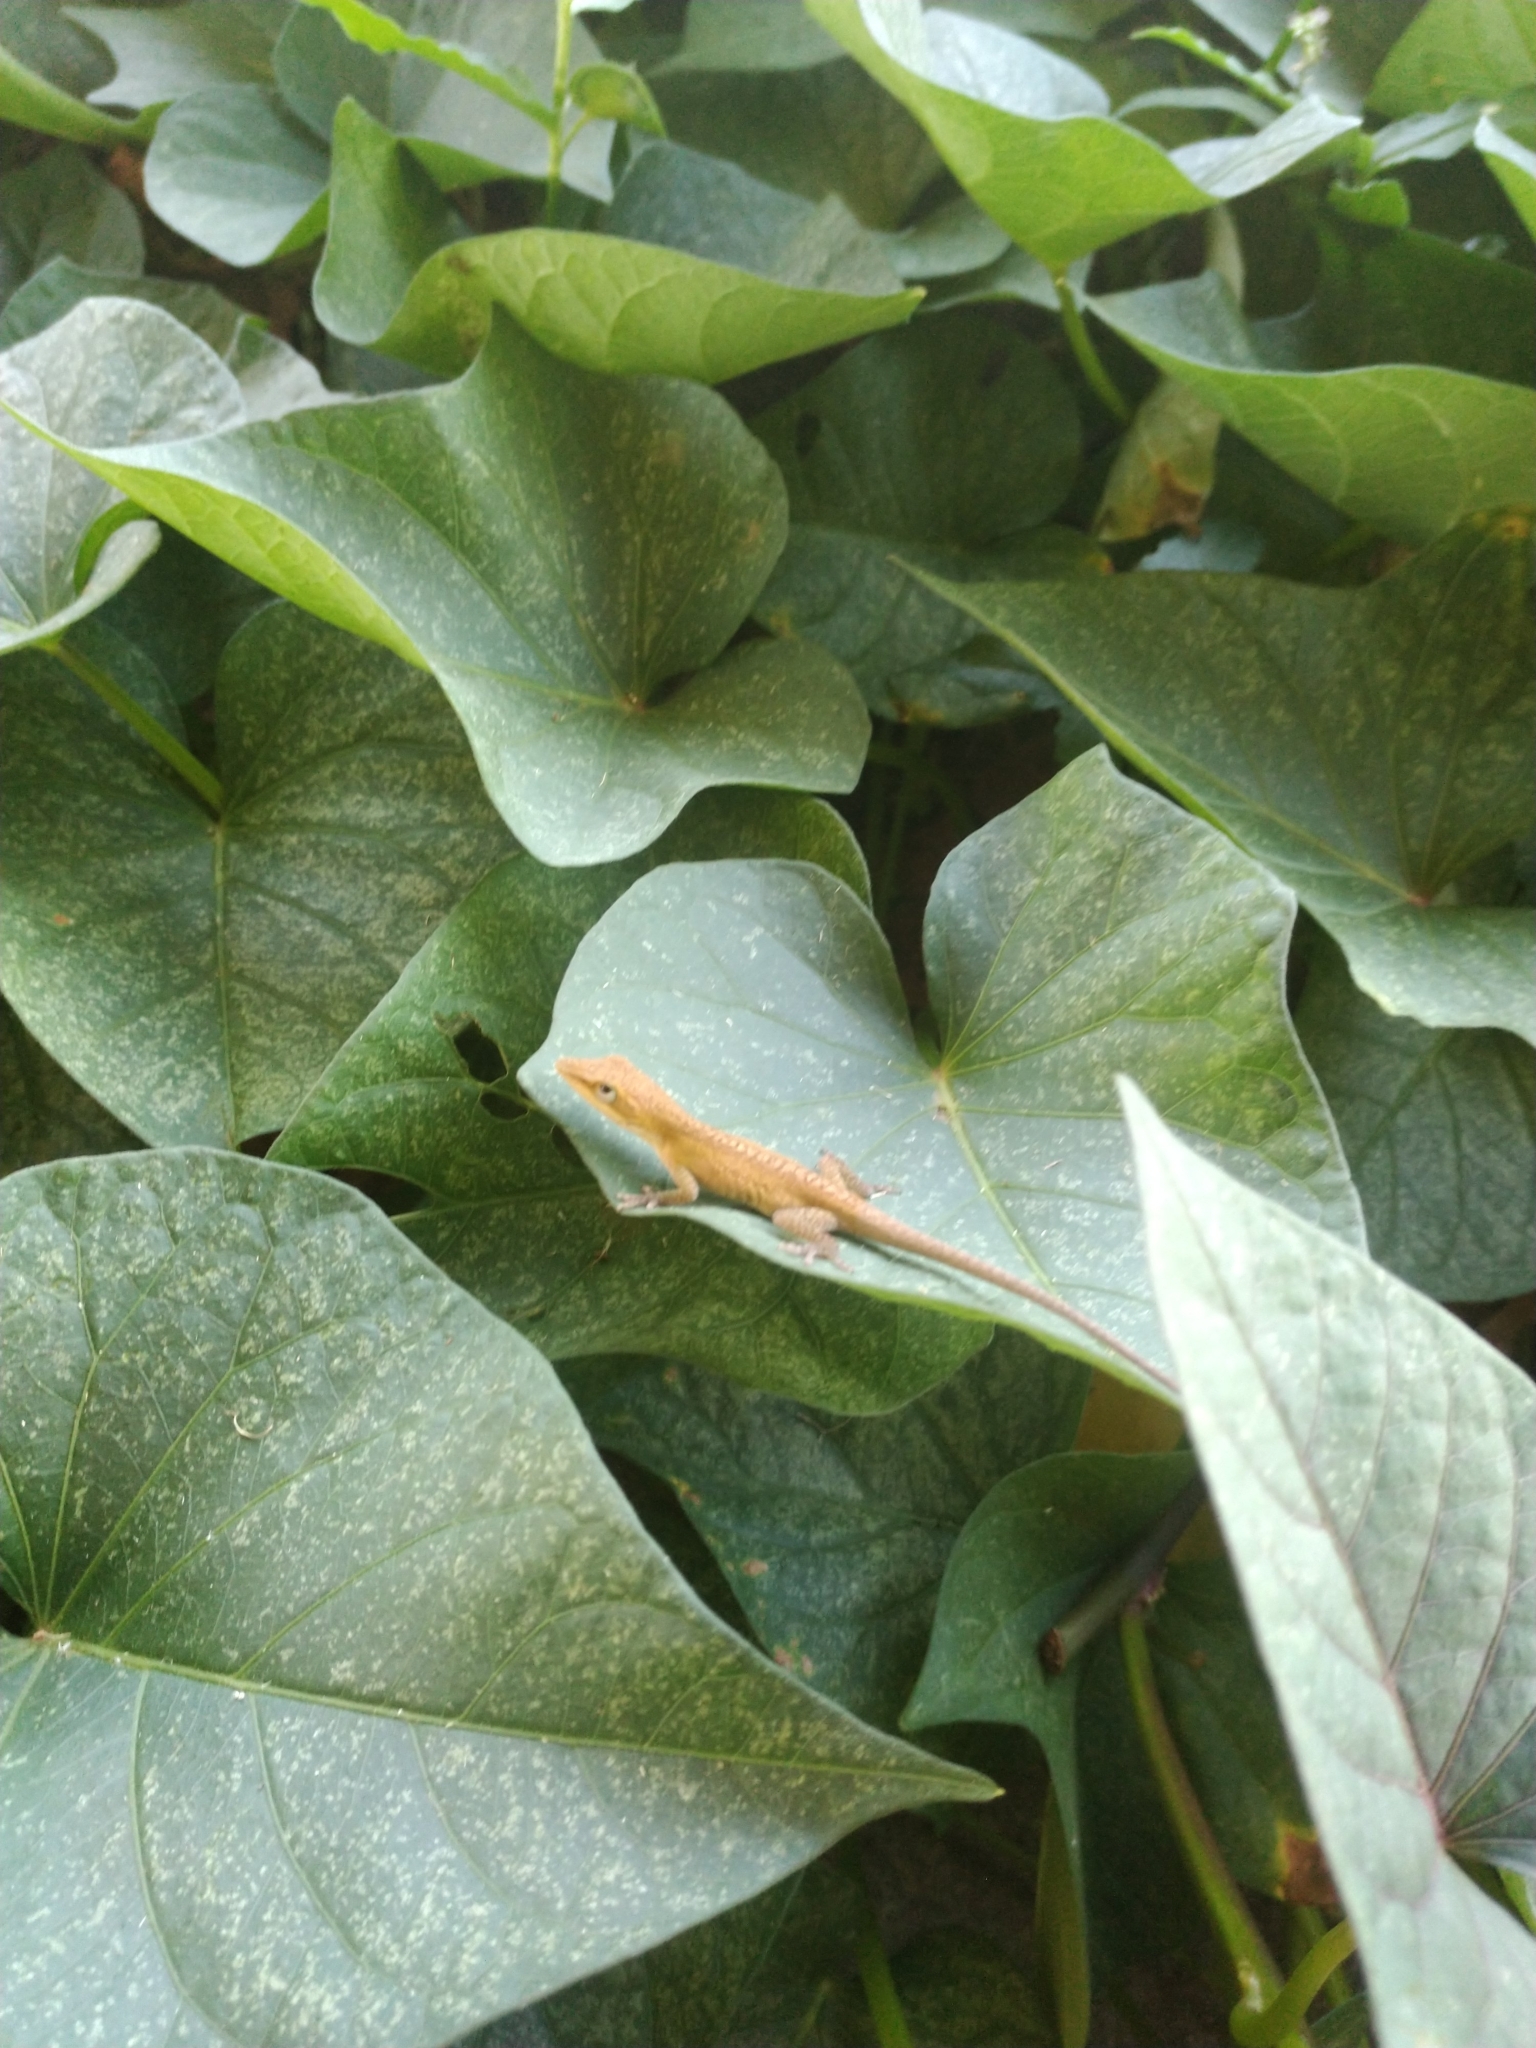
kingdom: Animalia
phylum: Chordata
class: Squamata
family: Dactyloidae
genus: Anolis
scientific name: Anolis carolinensis
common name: Green anole
